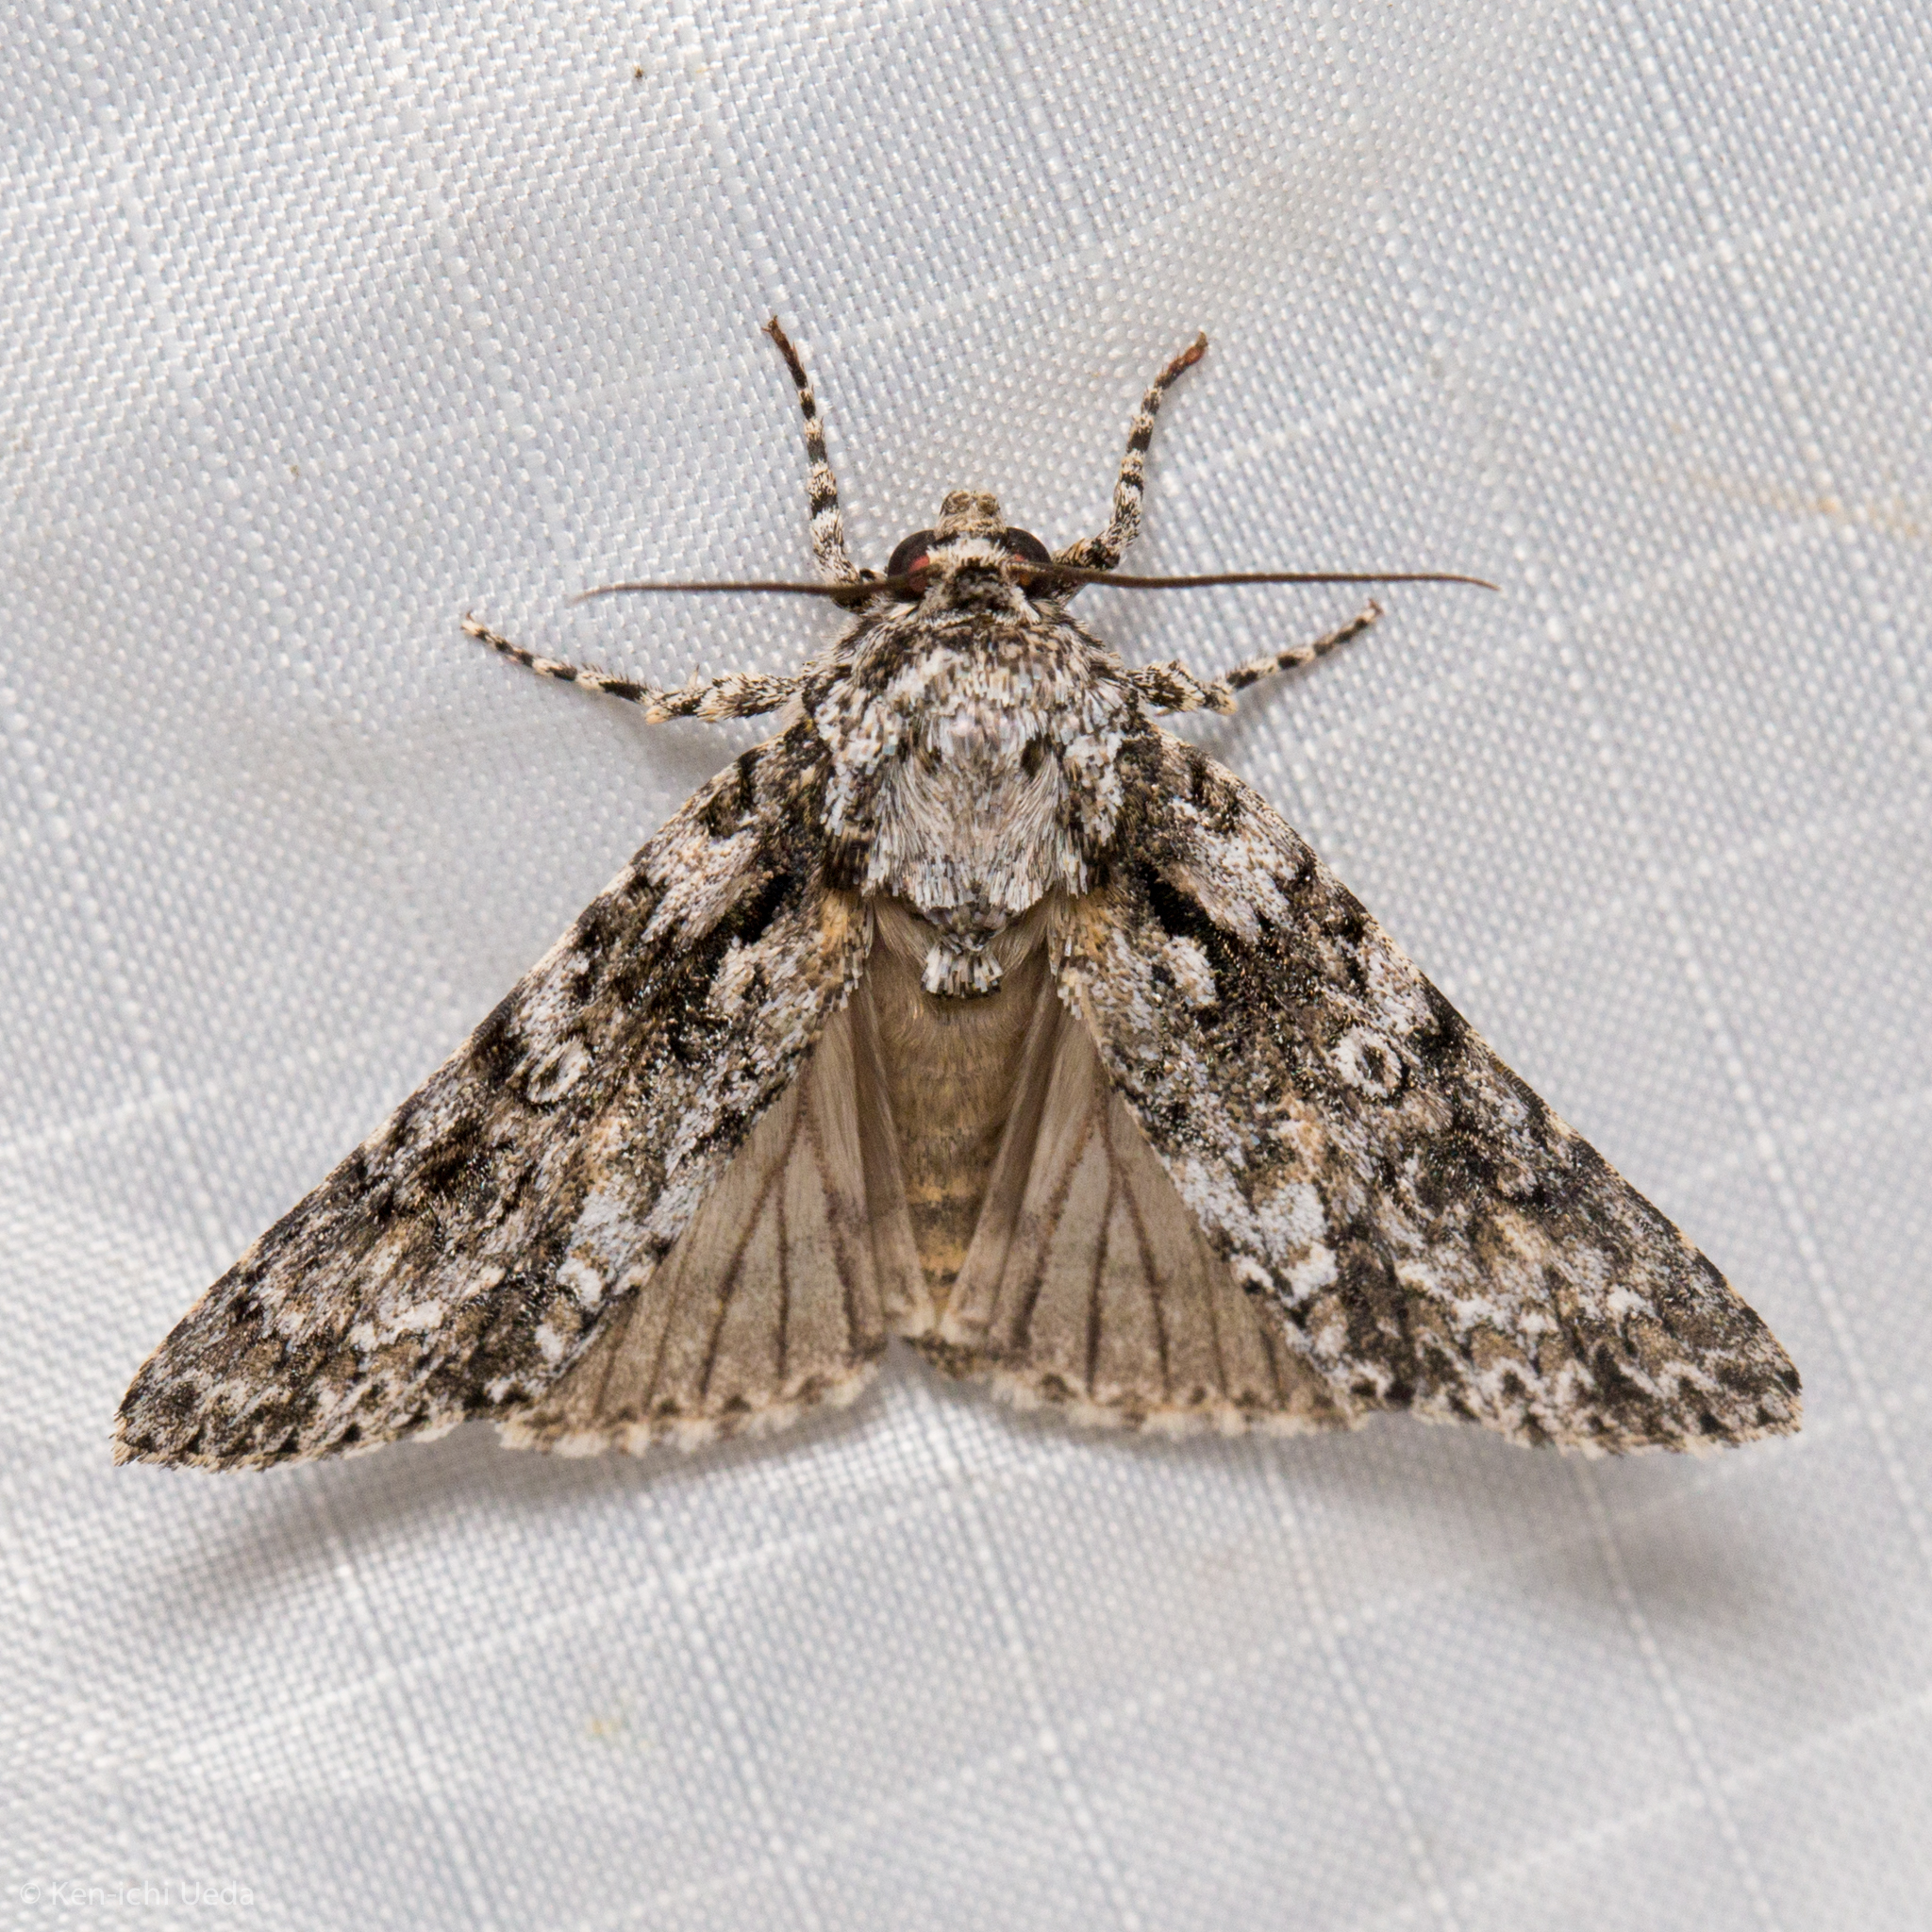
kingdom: Animalia
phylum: Arthropoda
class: Insecta
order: Lepidoptera
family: Noctuidae
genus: Acronicta
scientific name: Acronicta marmorata
